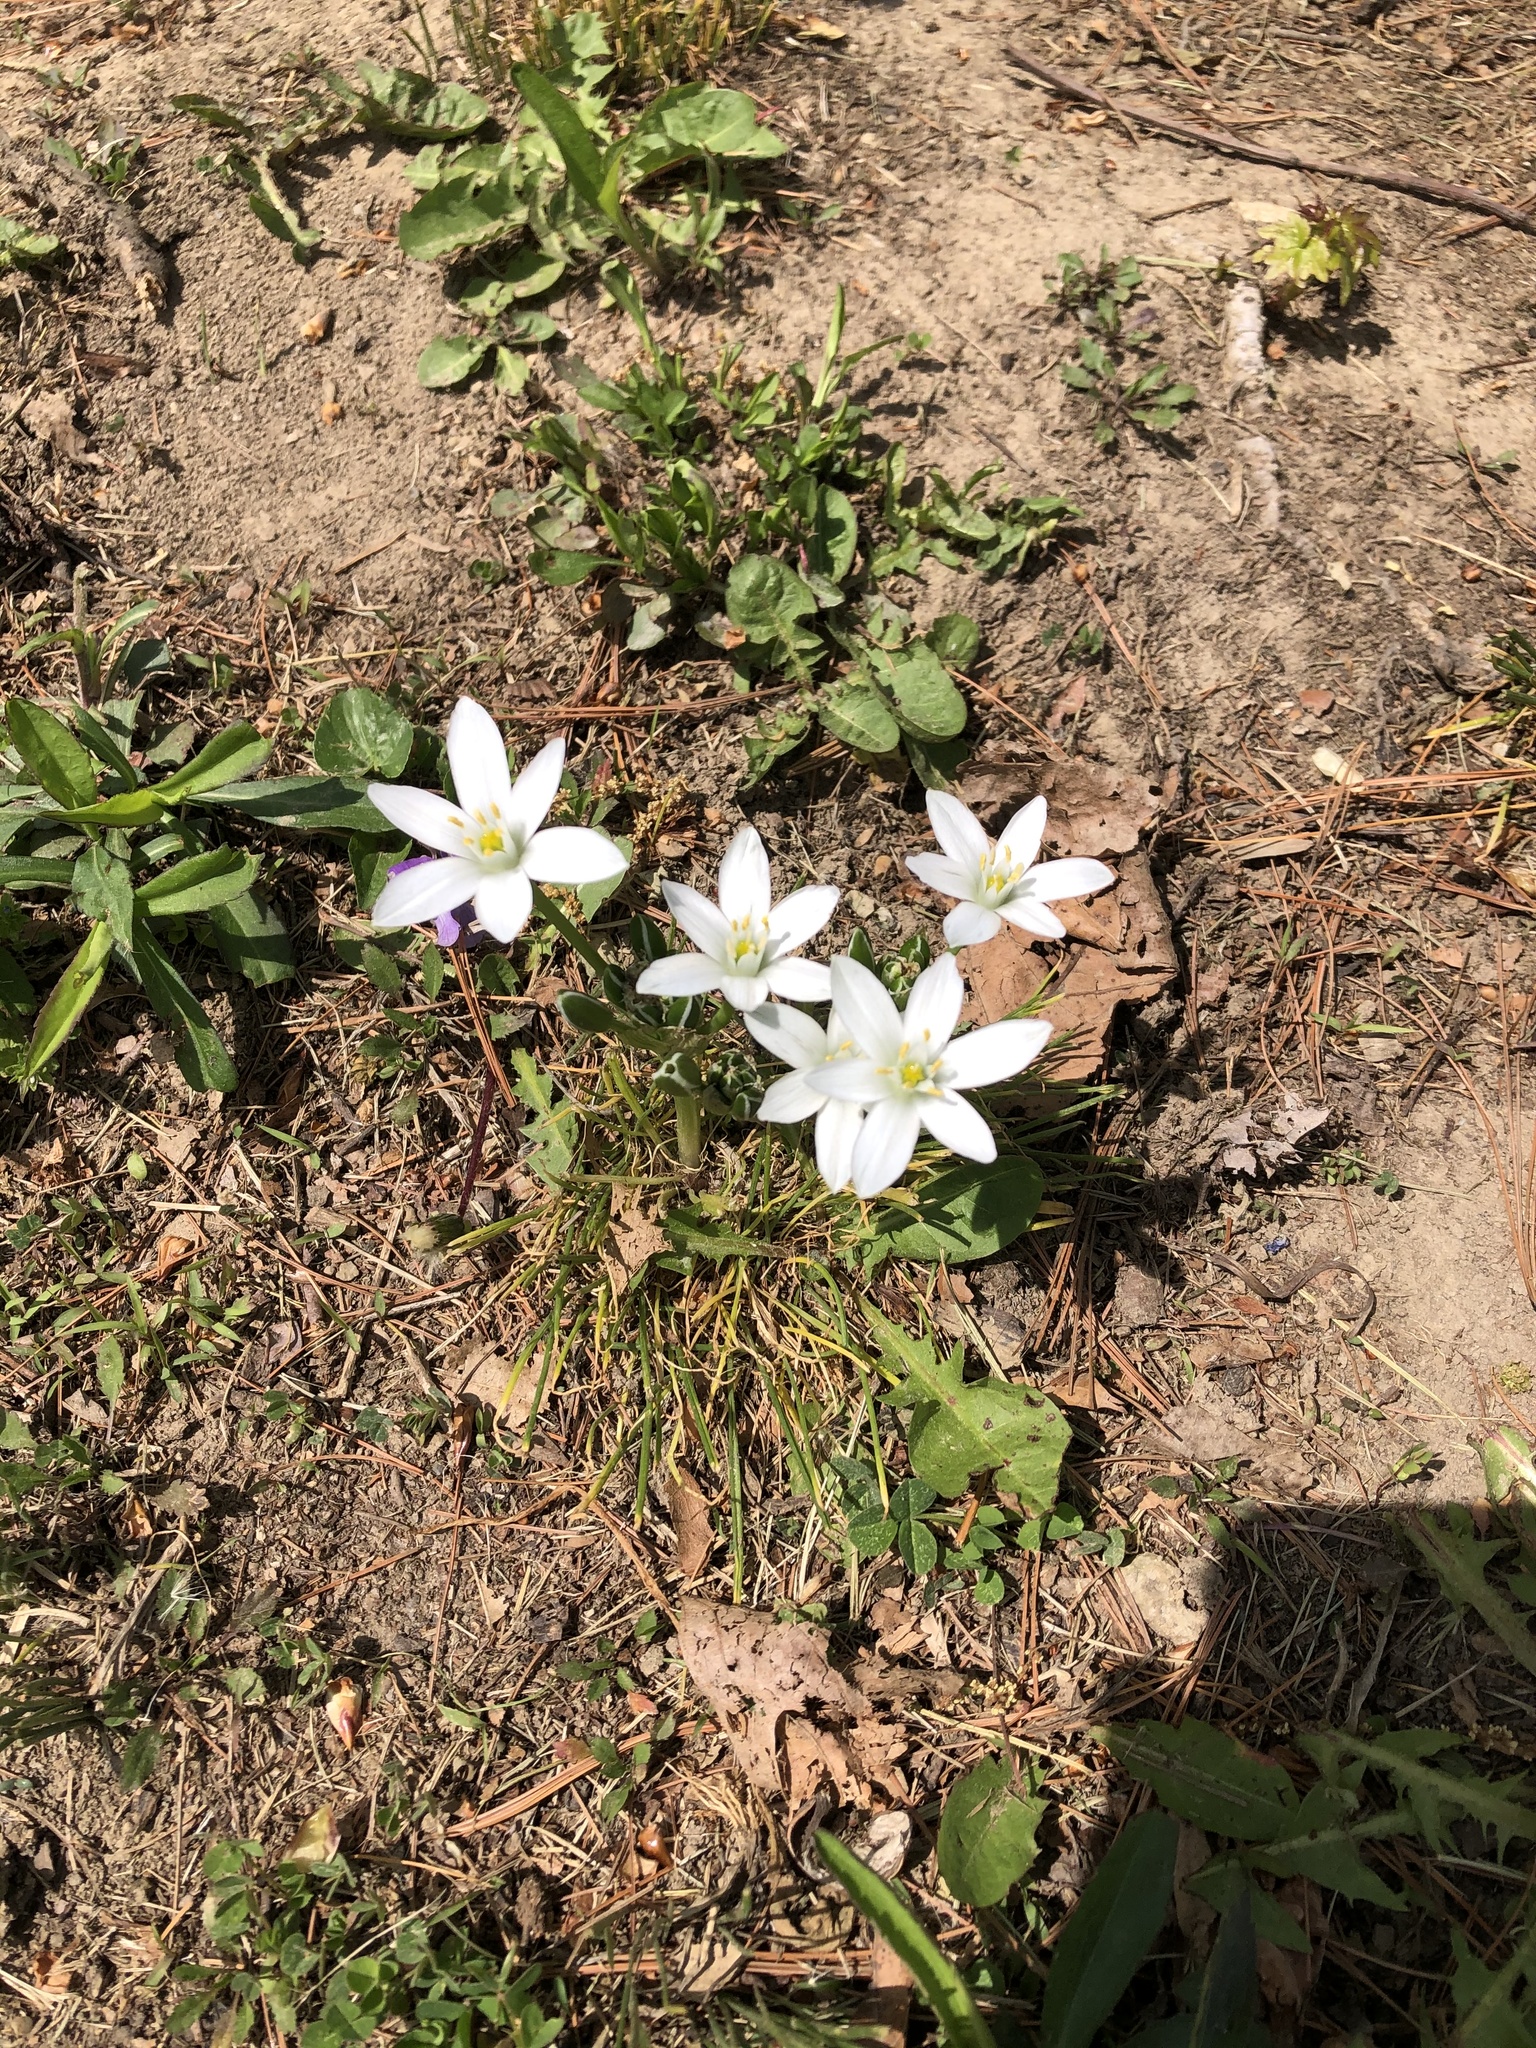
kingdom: Plantae
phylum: Tracheophyta
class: Liliopsida
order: Asparagales
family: Asparagaceae
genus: Ornithogalum
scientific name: Ornithogalum umbellatum
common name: Garden star-of-bethlehem
